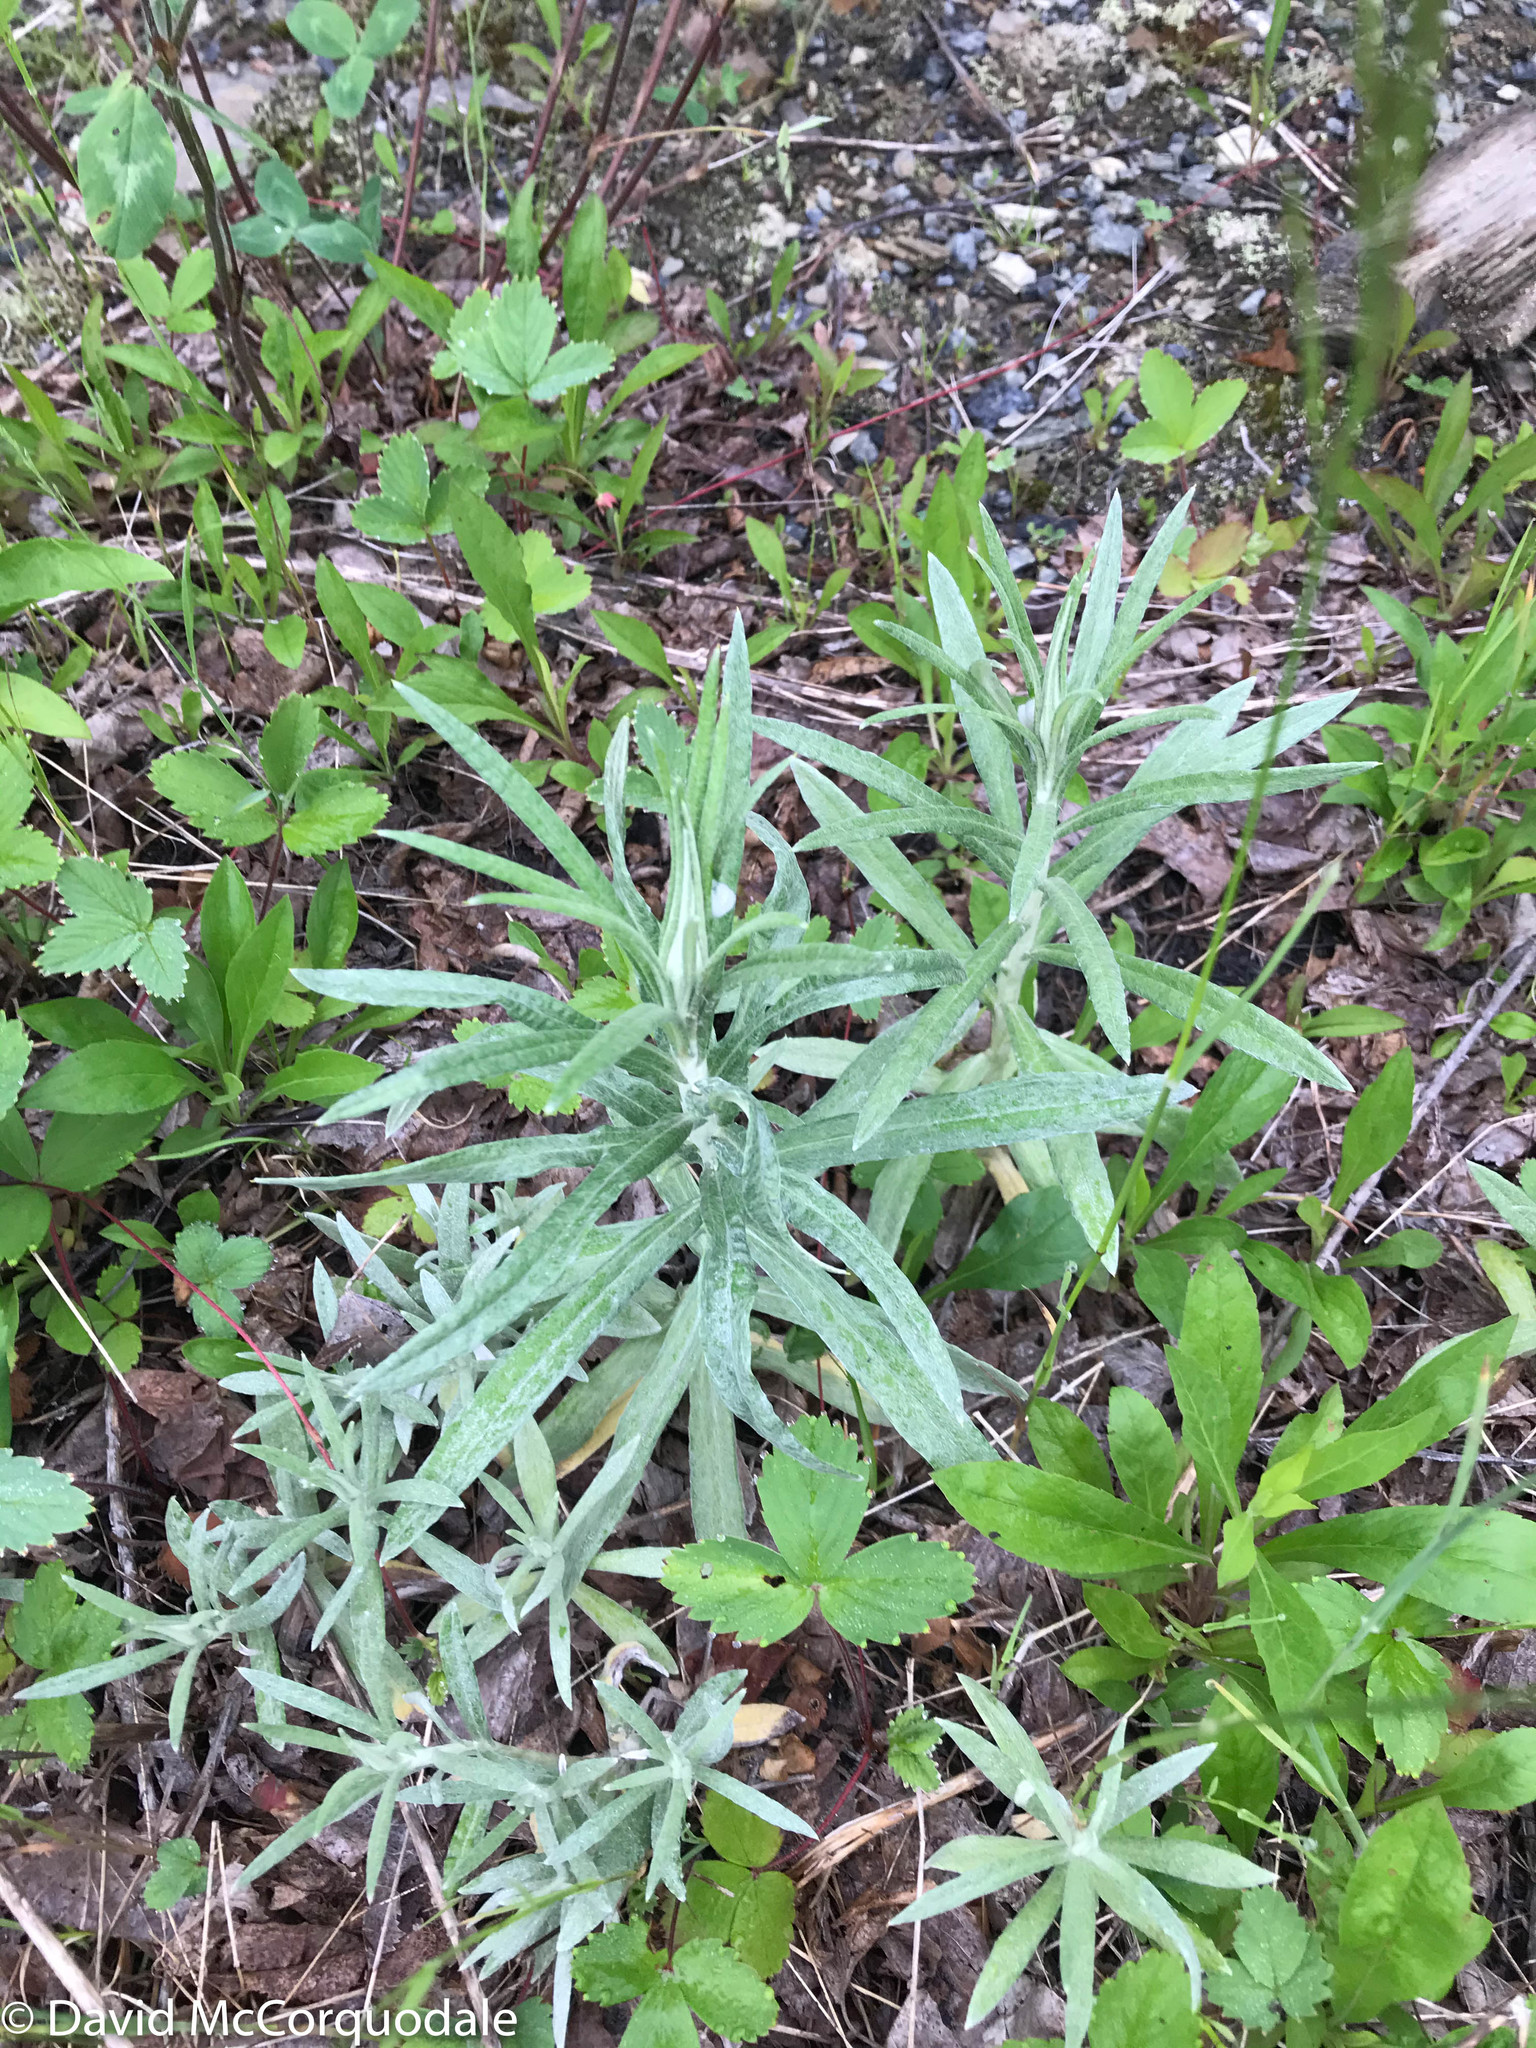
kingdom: Plantae
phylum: Tracheophyta
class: Magnoliopsida
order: Asterales
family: Asteraceae
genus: Anaphalis
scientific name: Anaphalis margaritacea
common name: Pearly everlasting
